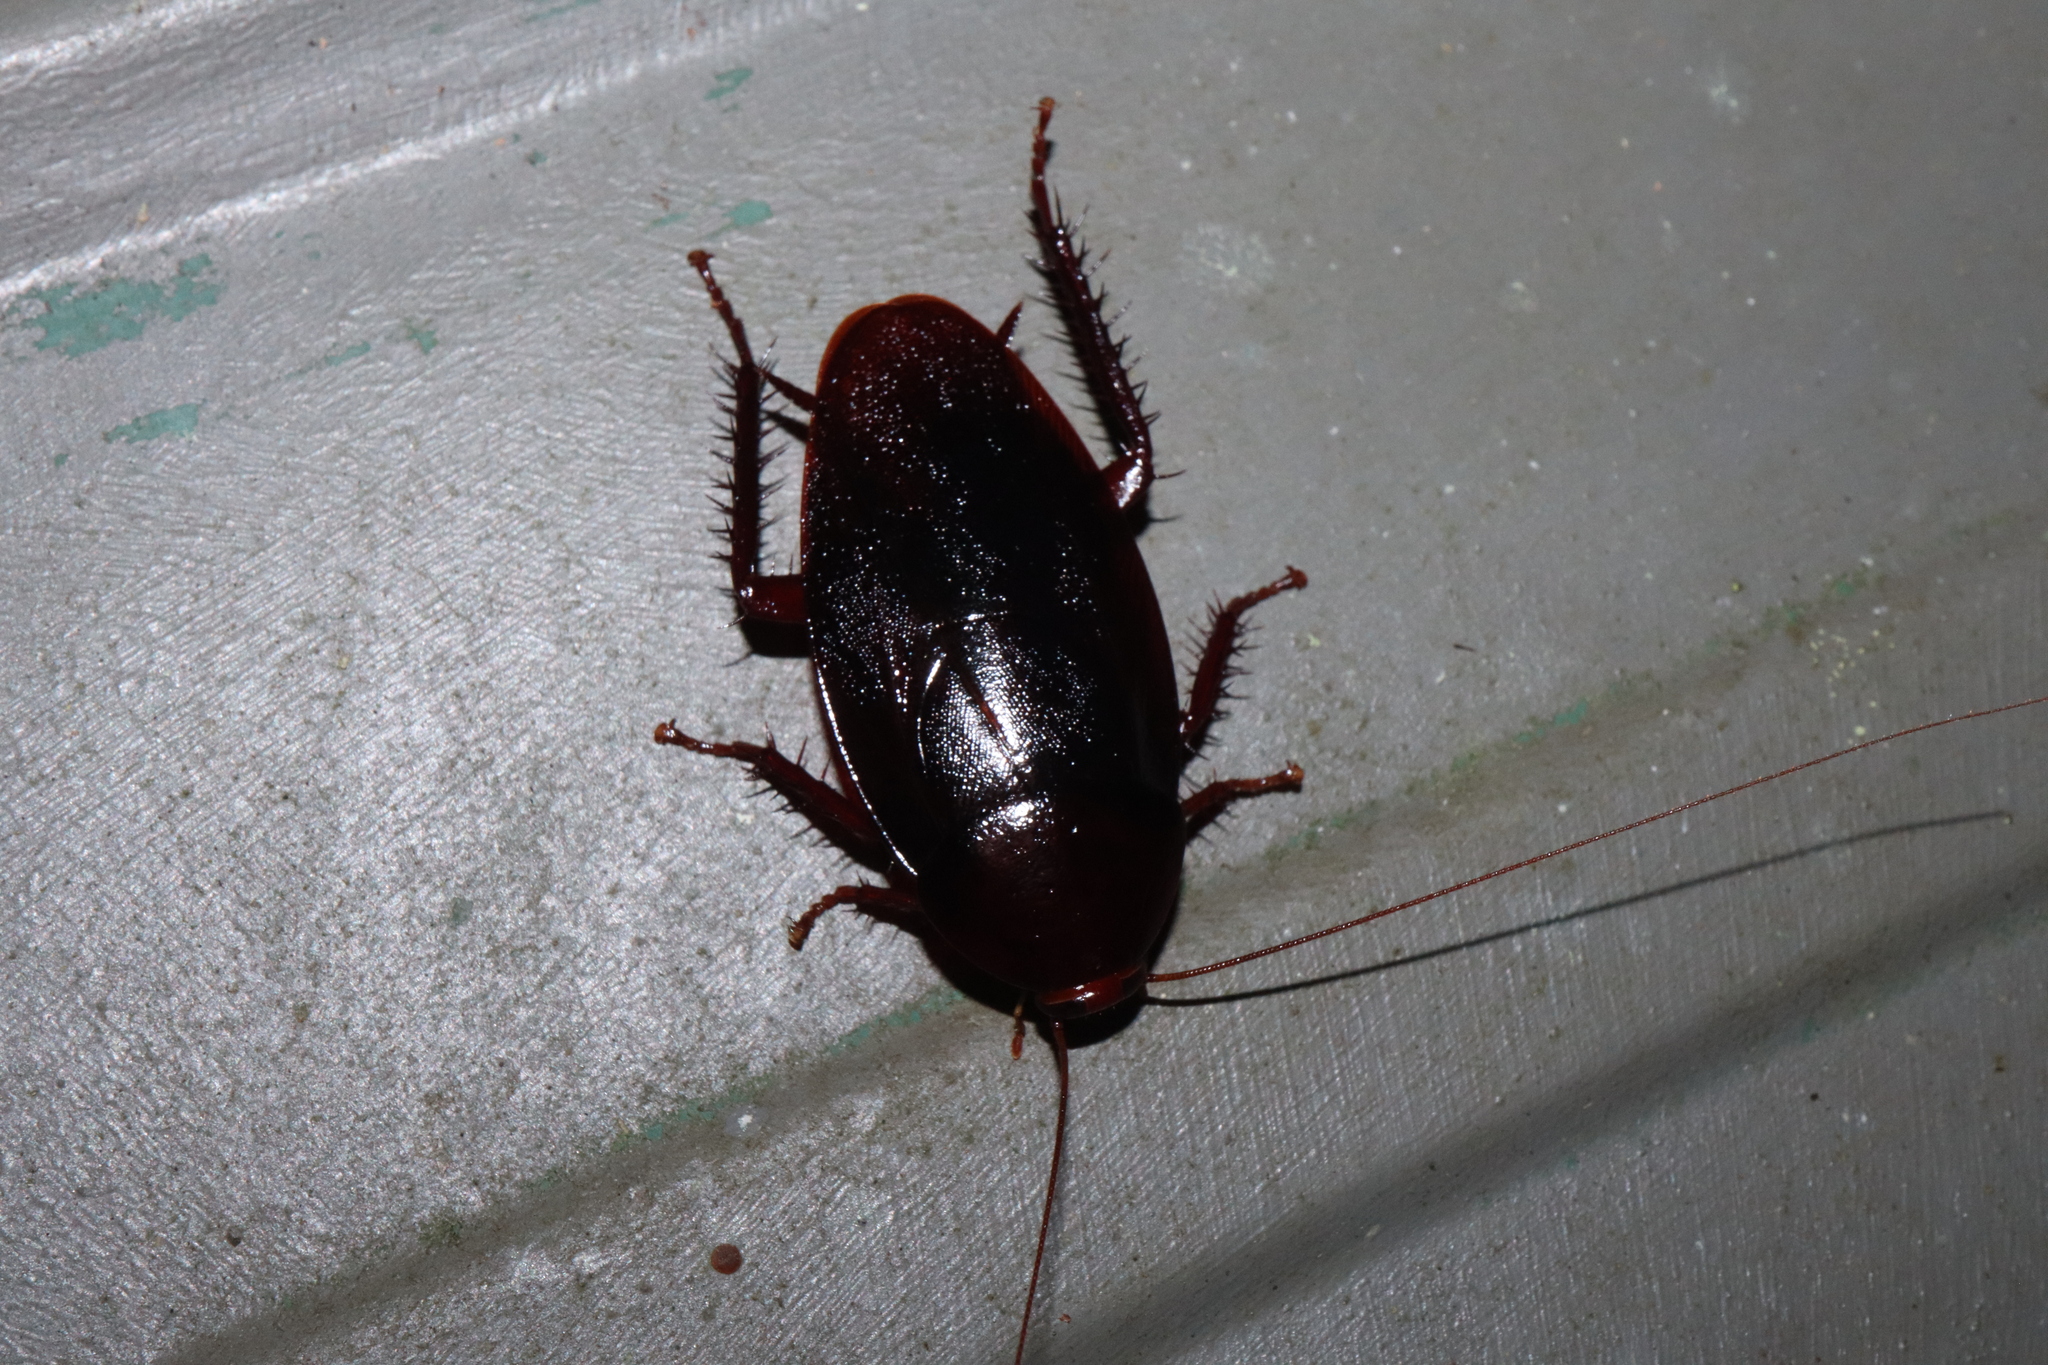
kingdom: Animalia
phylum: Arthropoda
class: Insecta
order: Blattodea
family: Blattidae
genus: Methana
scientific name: Methana convexa
